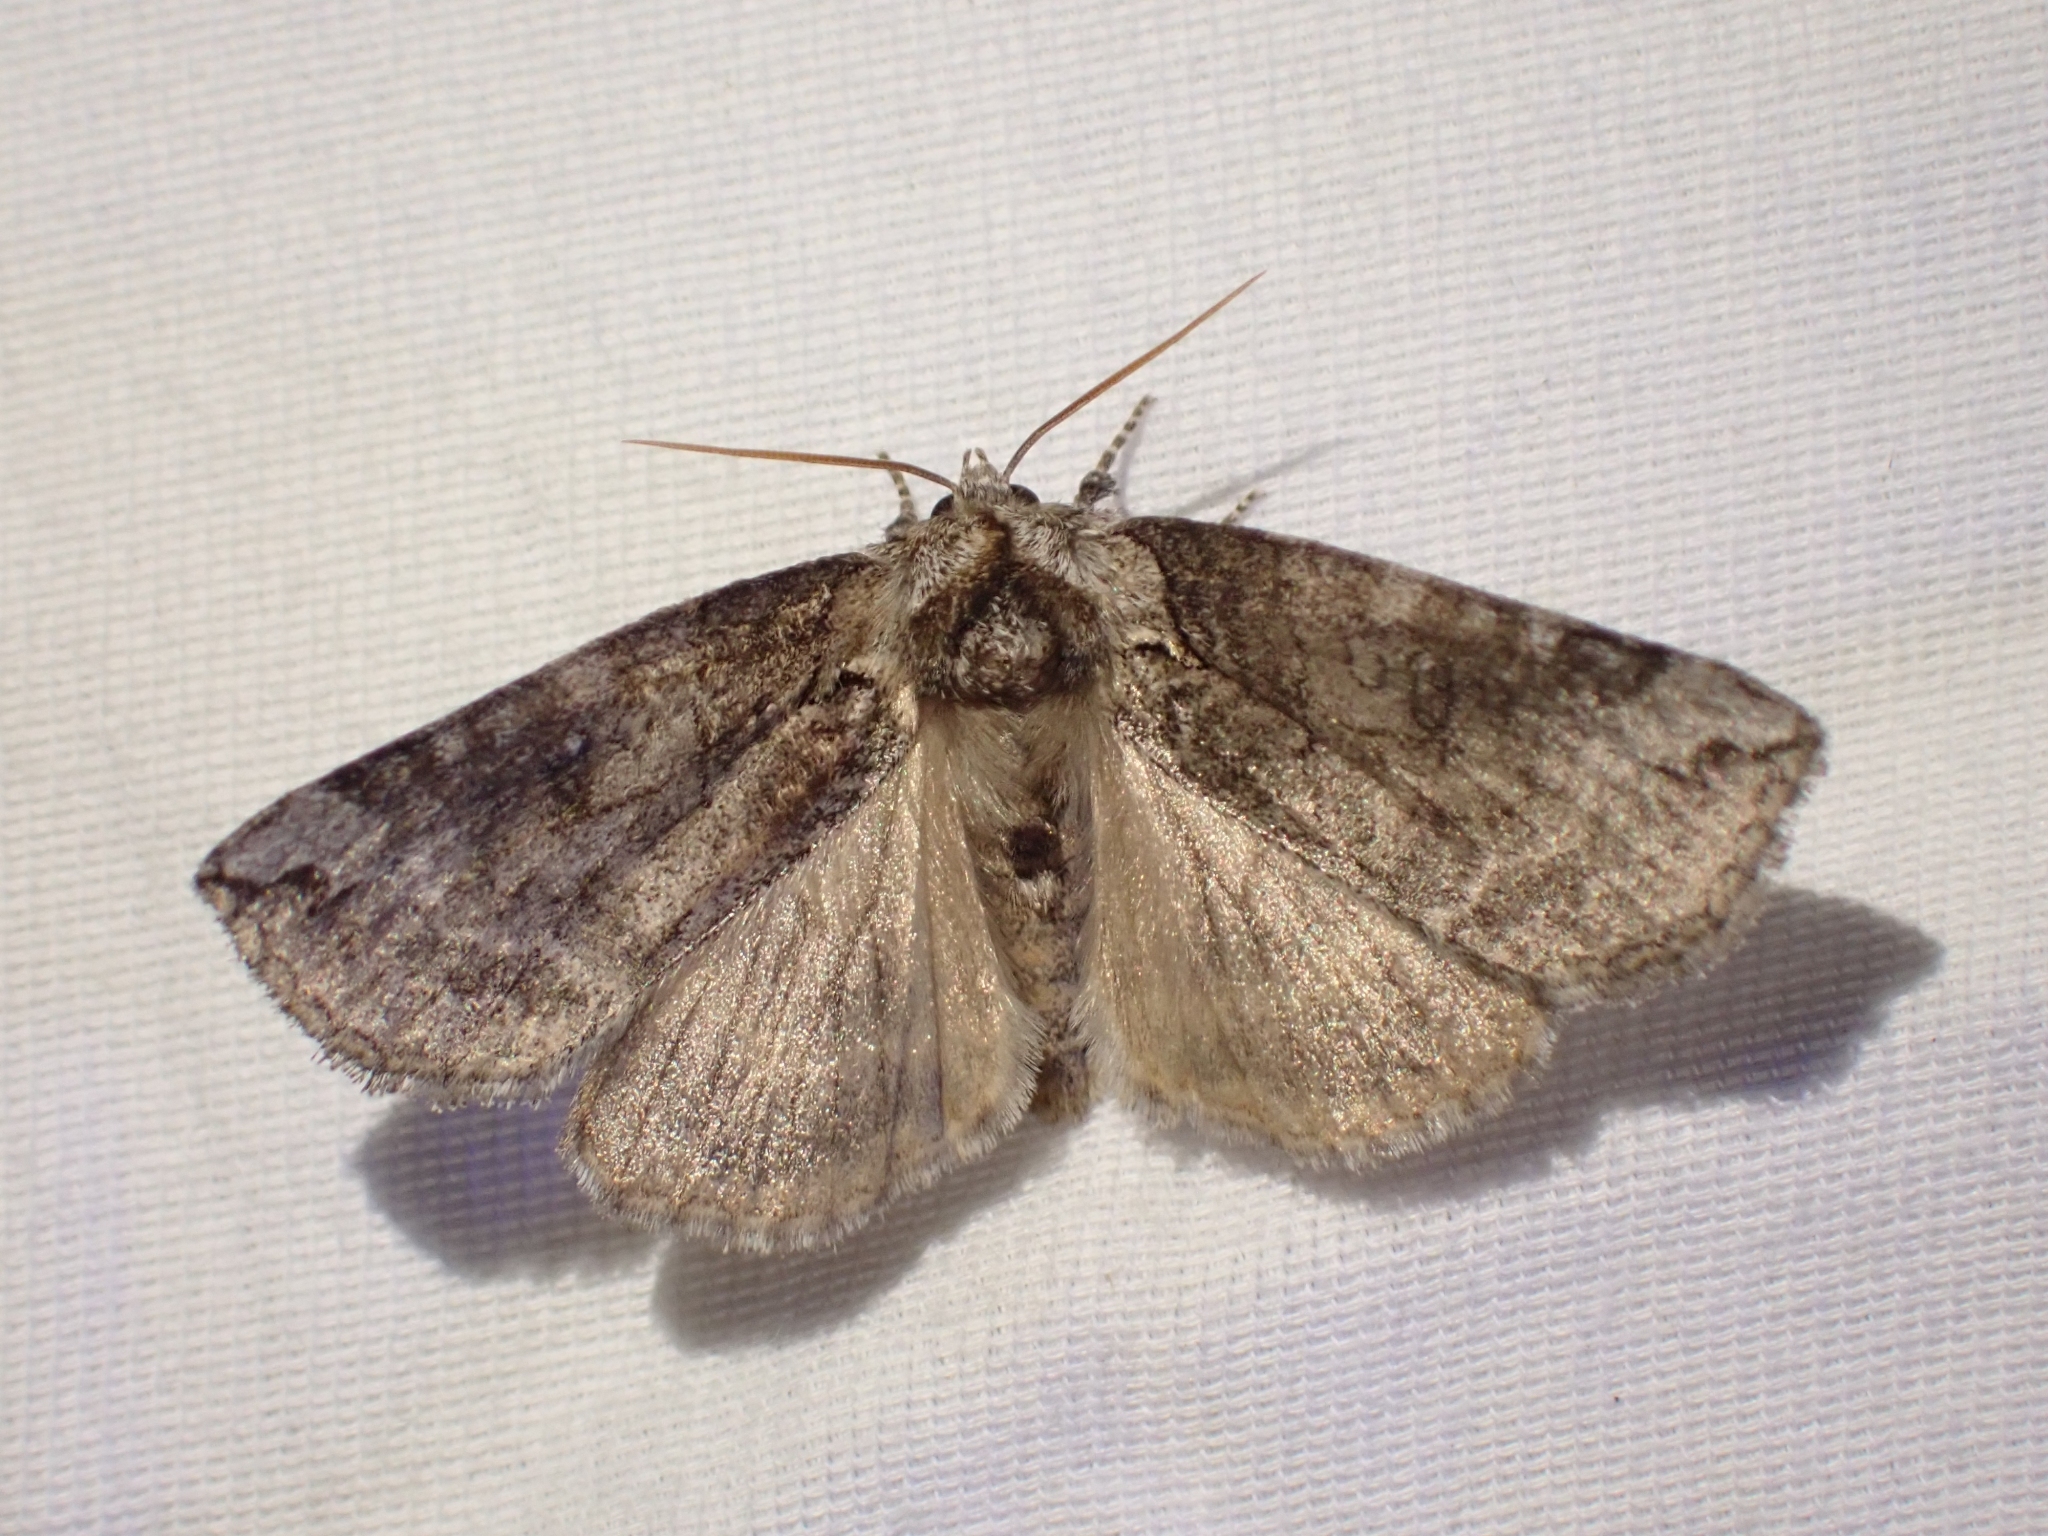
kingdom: Animalia
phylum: Arthropoda
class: Insecta
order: Lepidoptera
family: Drepanidae
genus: Euthyatira
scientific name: Euthyatira semicircularis
